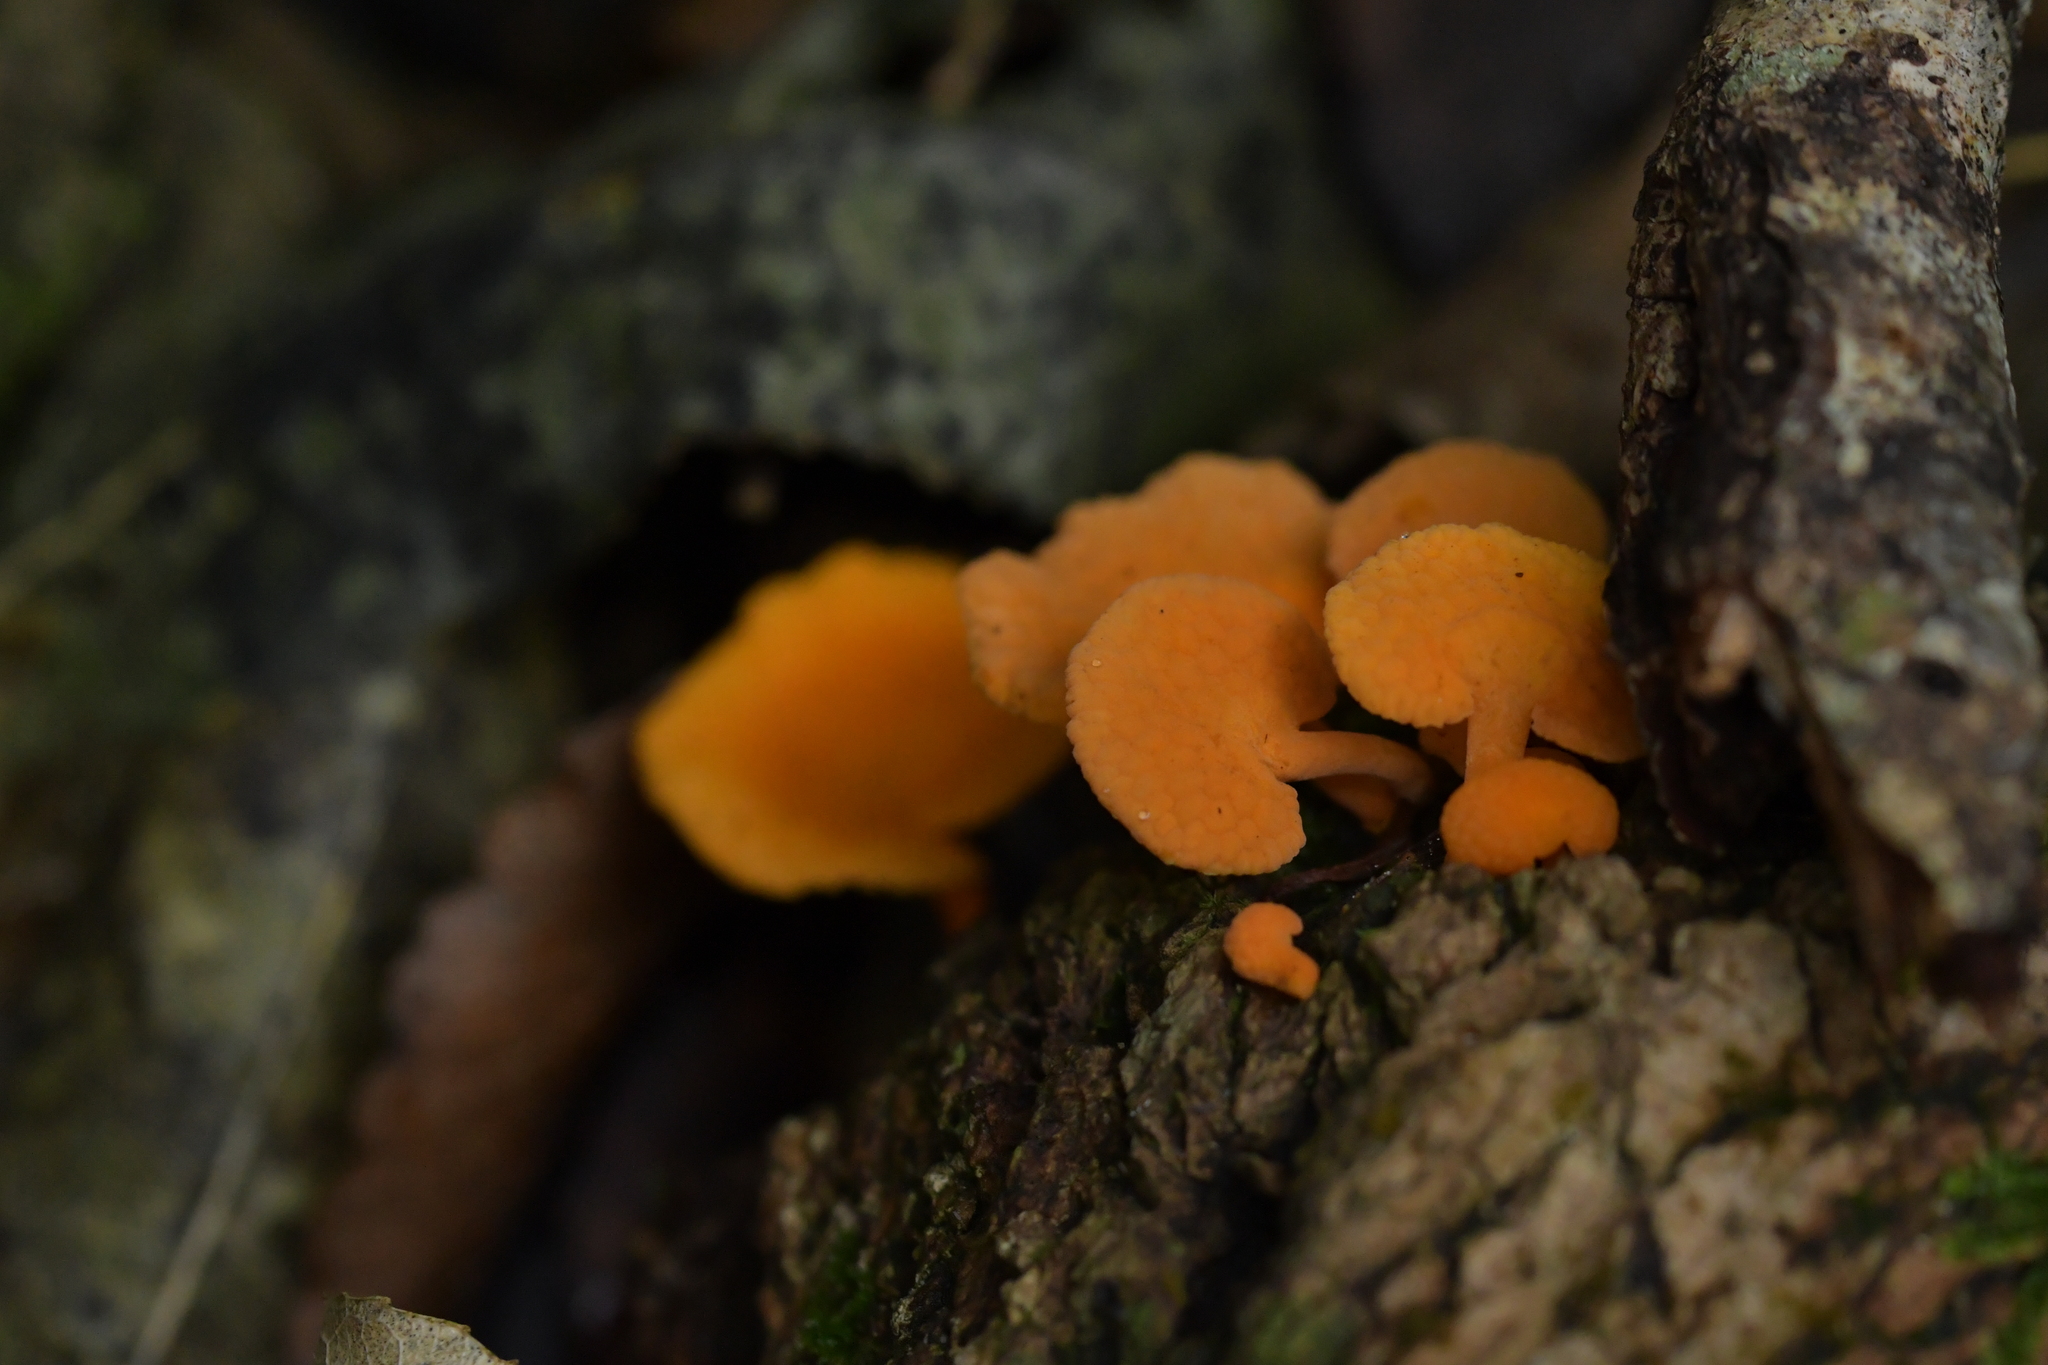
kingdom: Fungi
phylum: Basidiomycota
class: Agaricomycetes
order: Agaricales
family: Mycenaceae
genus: Favolaschia
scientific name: Favolaschia claudopus
